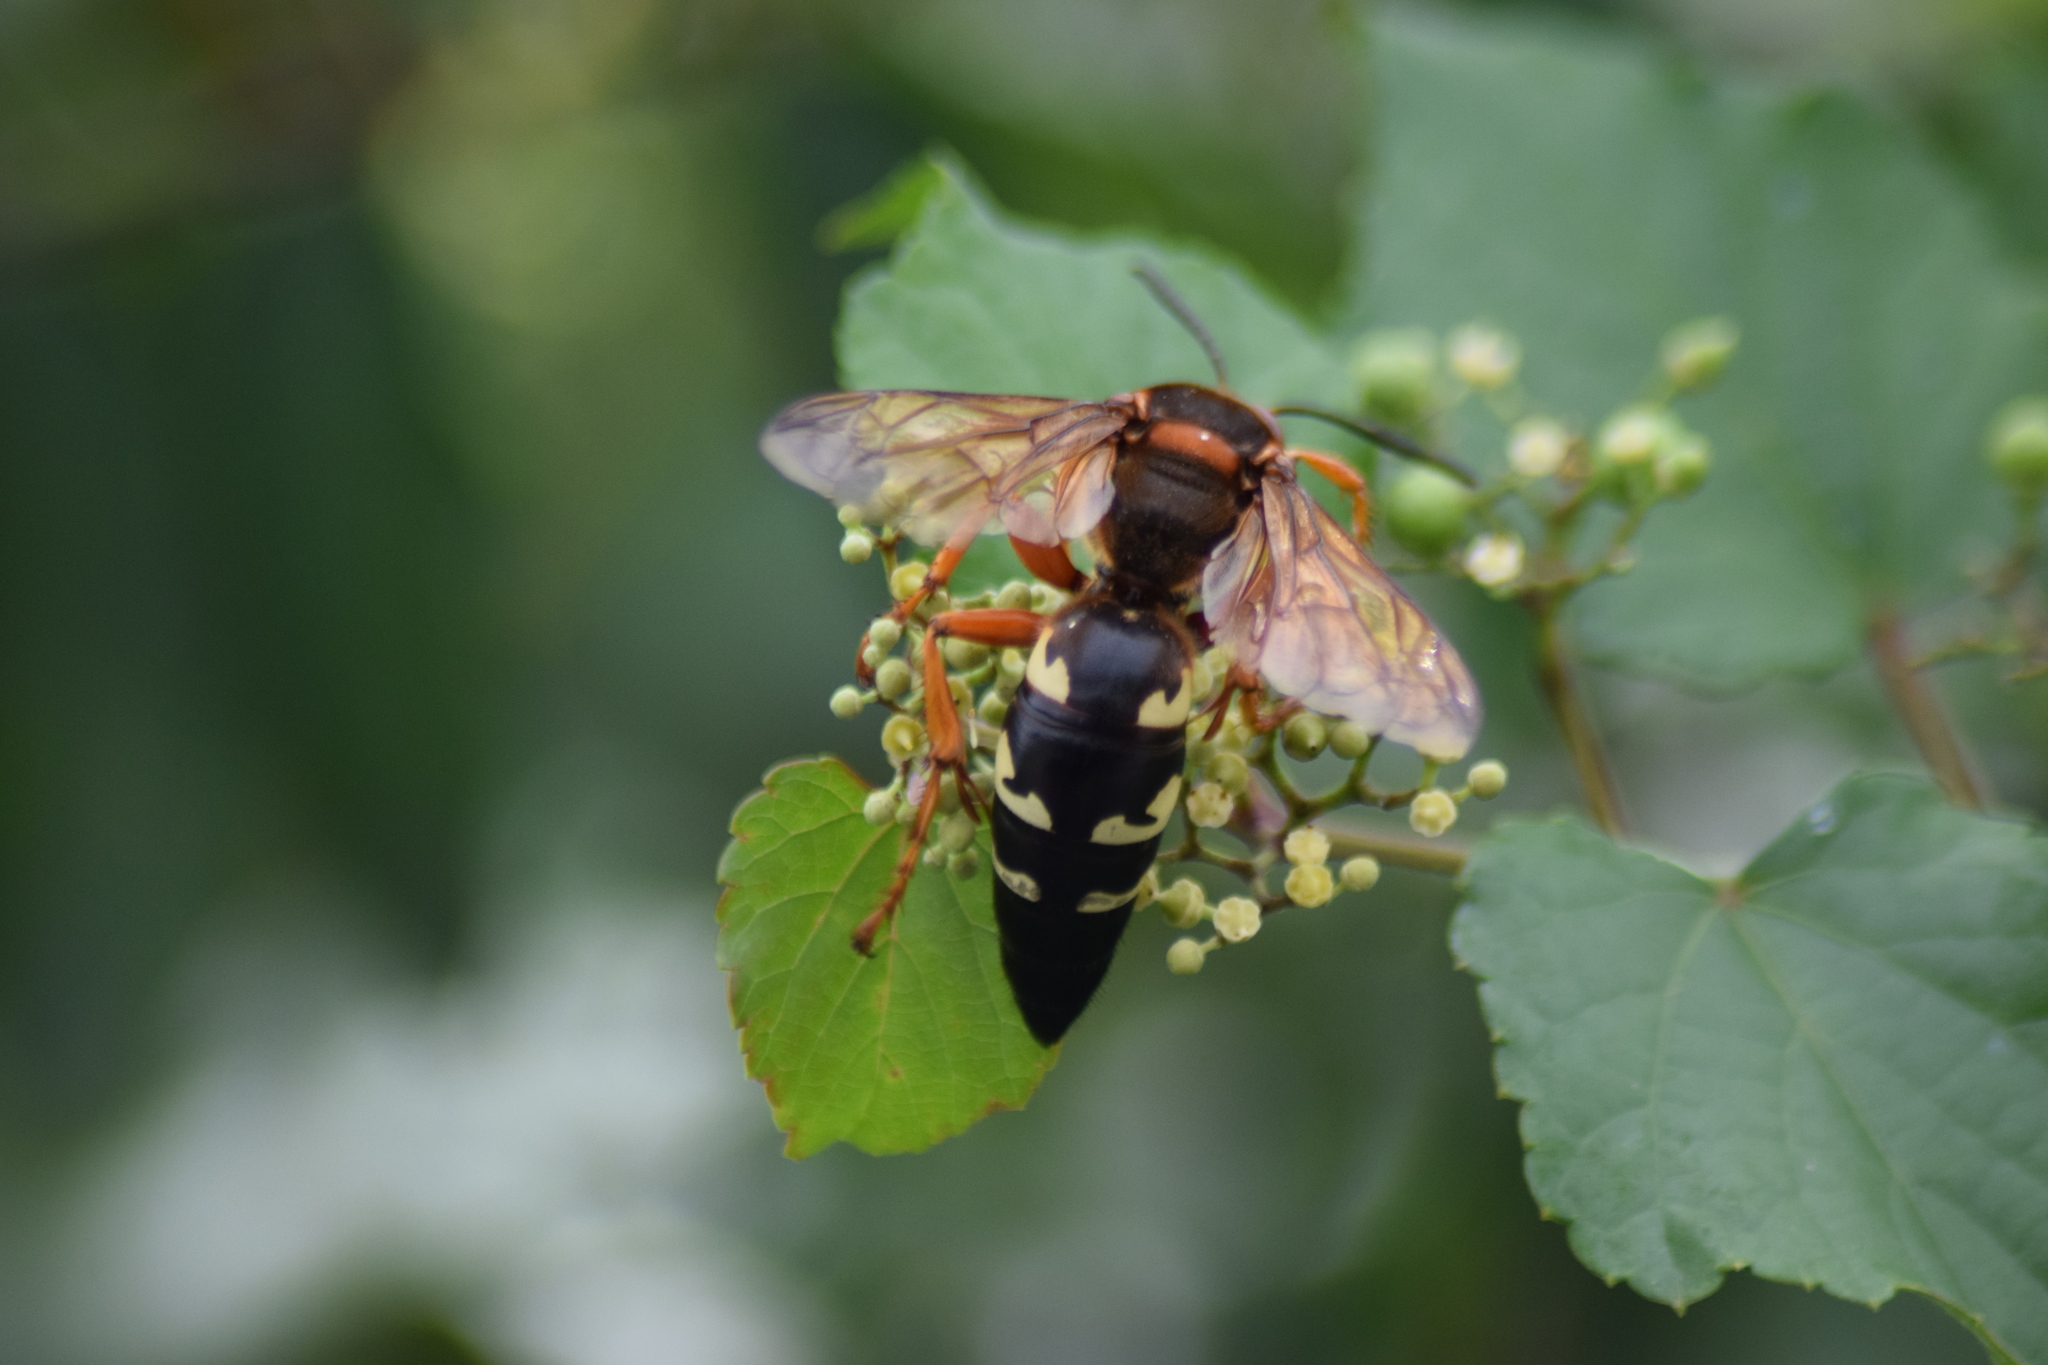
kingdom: Animalia
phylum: Arthropoda
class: Insecta
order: Hymenoptera
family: Crabronidae
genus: Sphecius
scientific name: Sphecius speciosus
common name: Cicada killer
